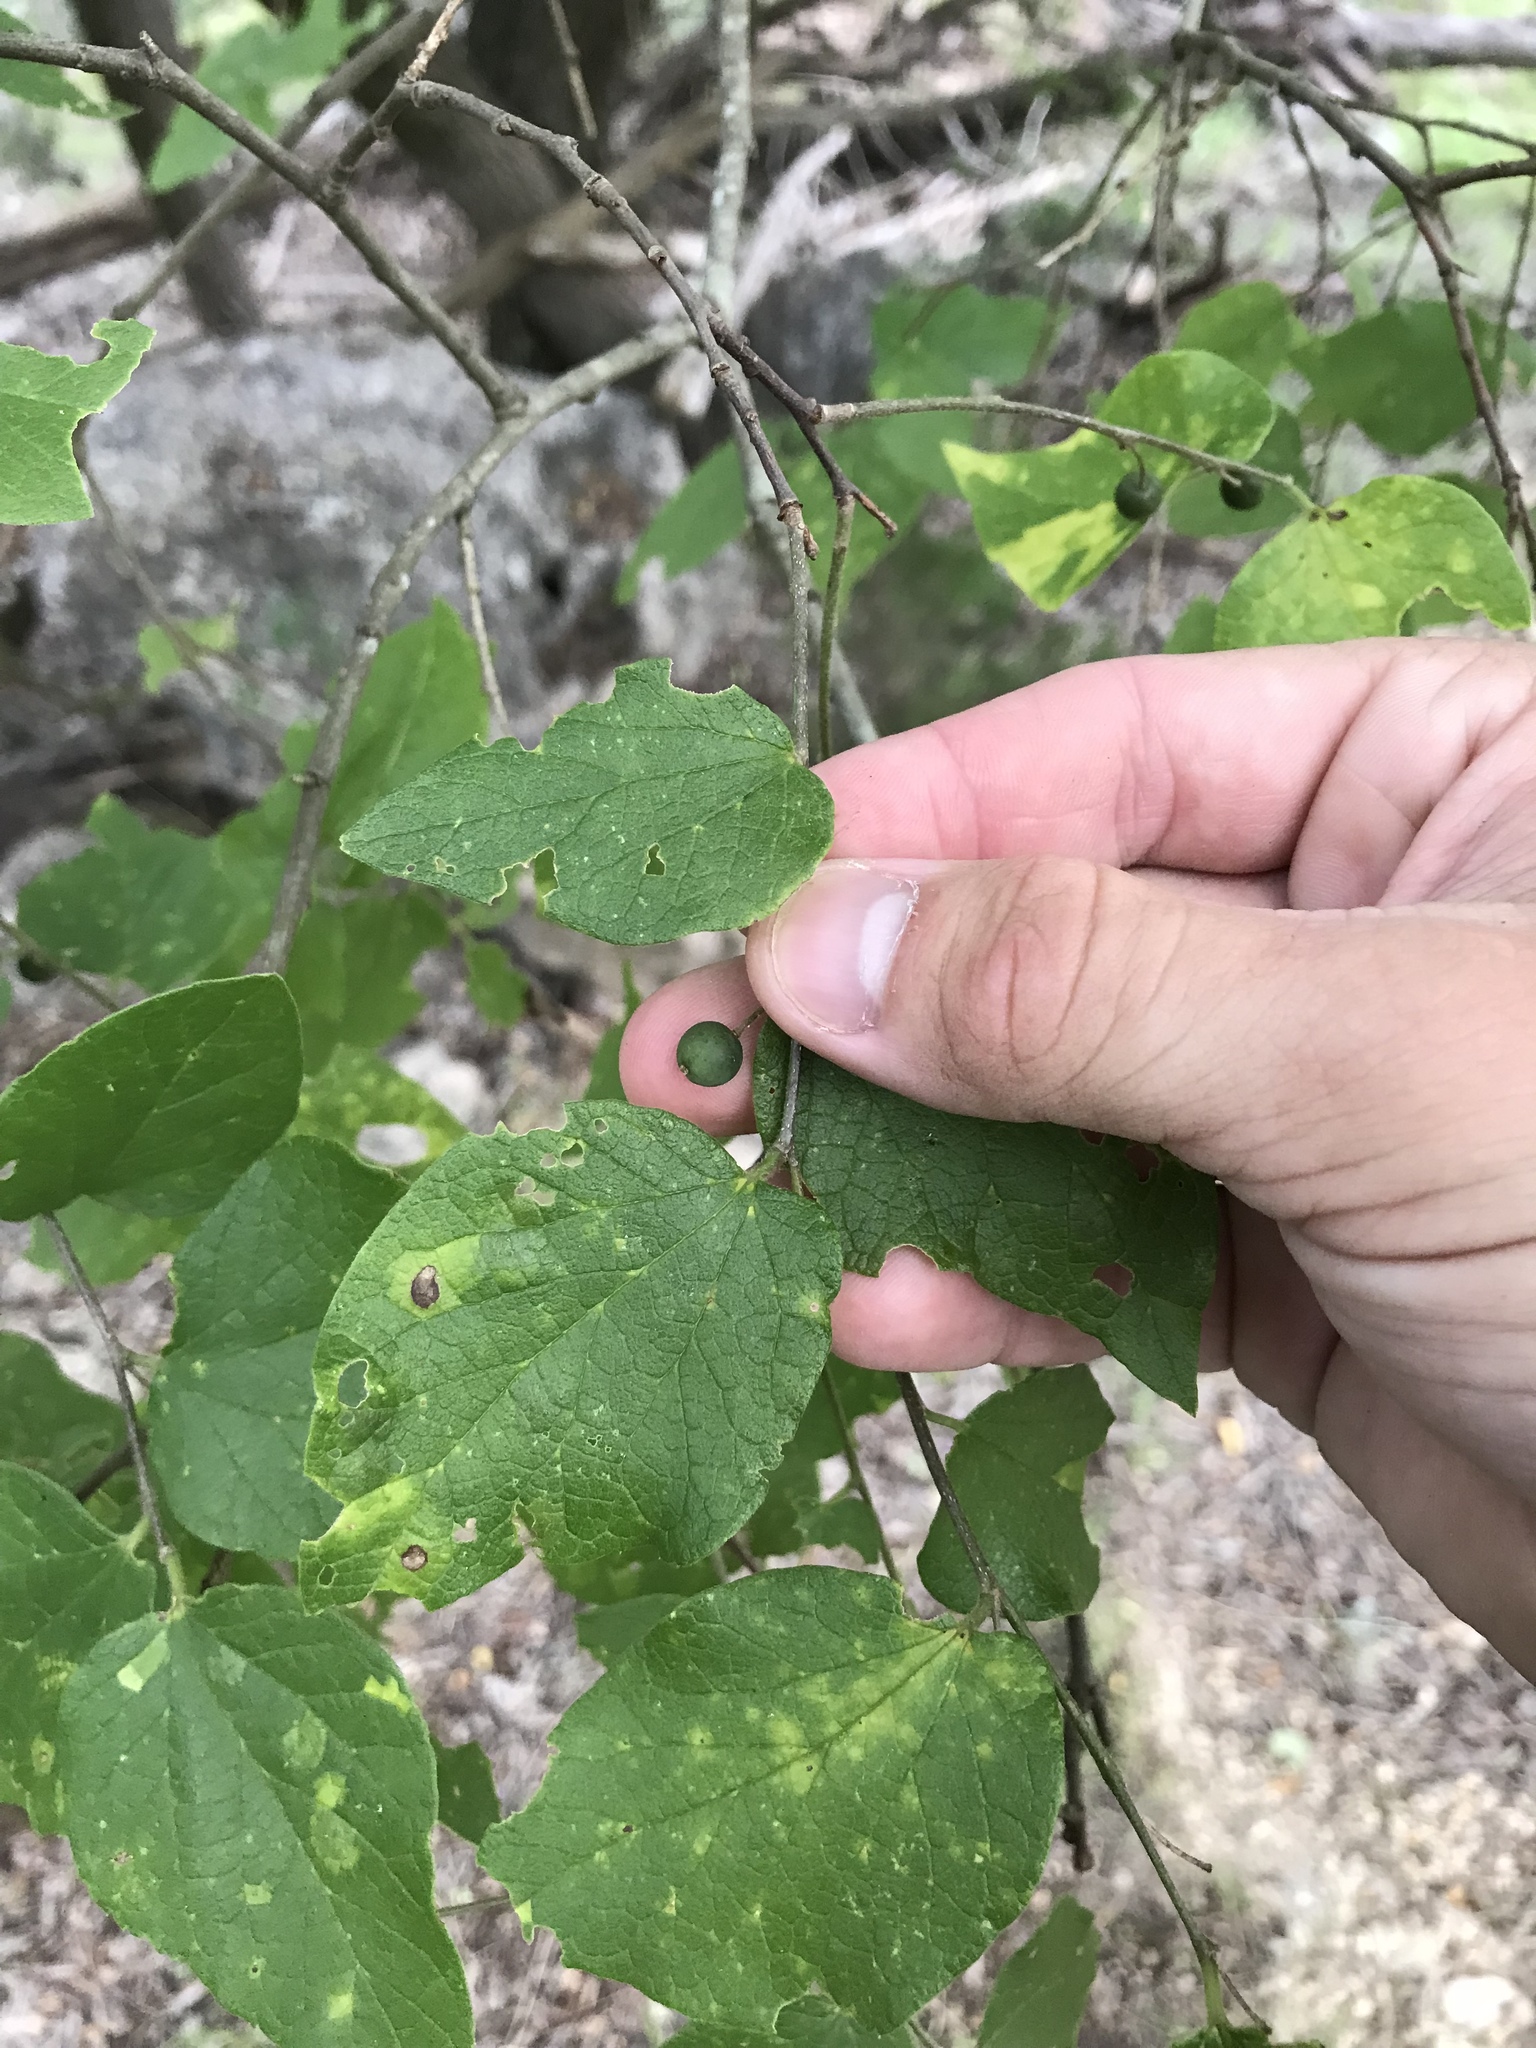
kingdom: Plantae
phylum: Tracheophyta
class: Magnoliopsida
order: Rosales
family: Cannabaceae
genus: Celtis
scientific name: Celtis reticulata
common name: Netleaf hackberry
